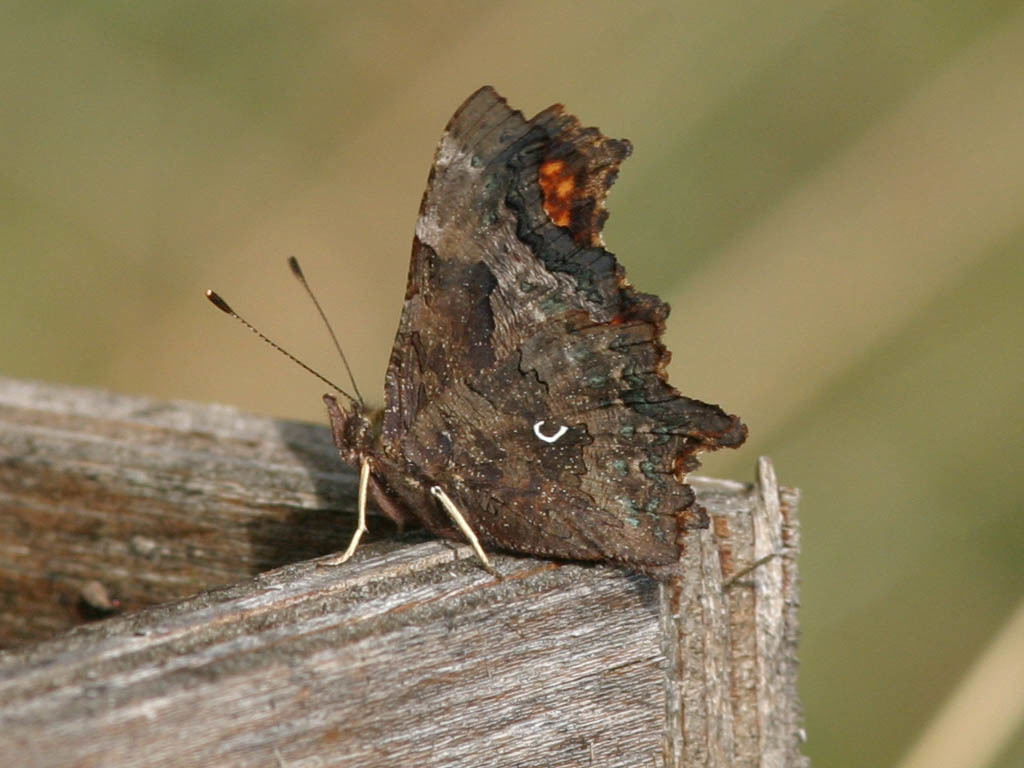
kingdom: Animalia
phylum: Arthropoda
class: Insecta
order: Lepidoptera
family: Nymphalidae
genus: Polygonia
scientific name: Polygonia c-album
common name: Comma
